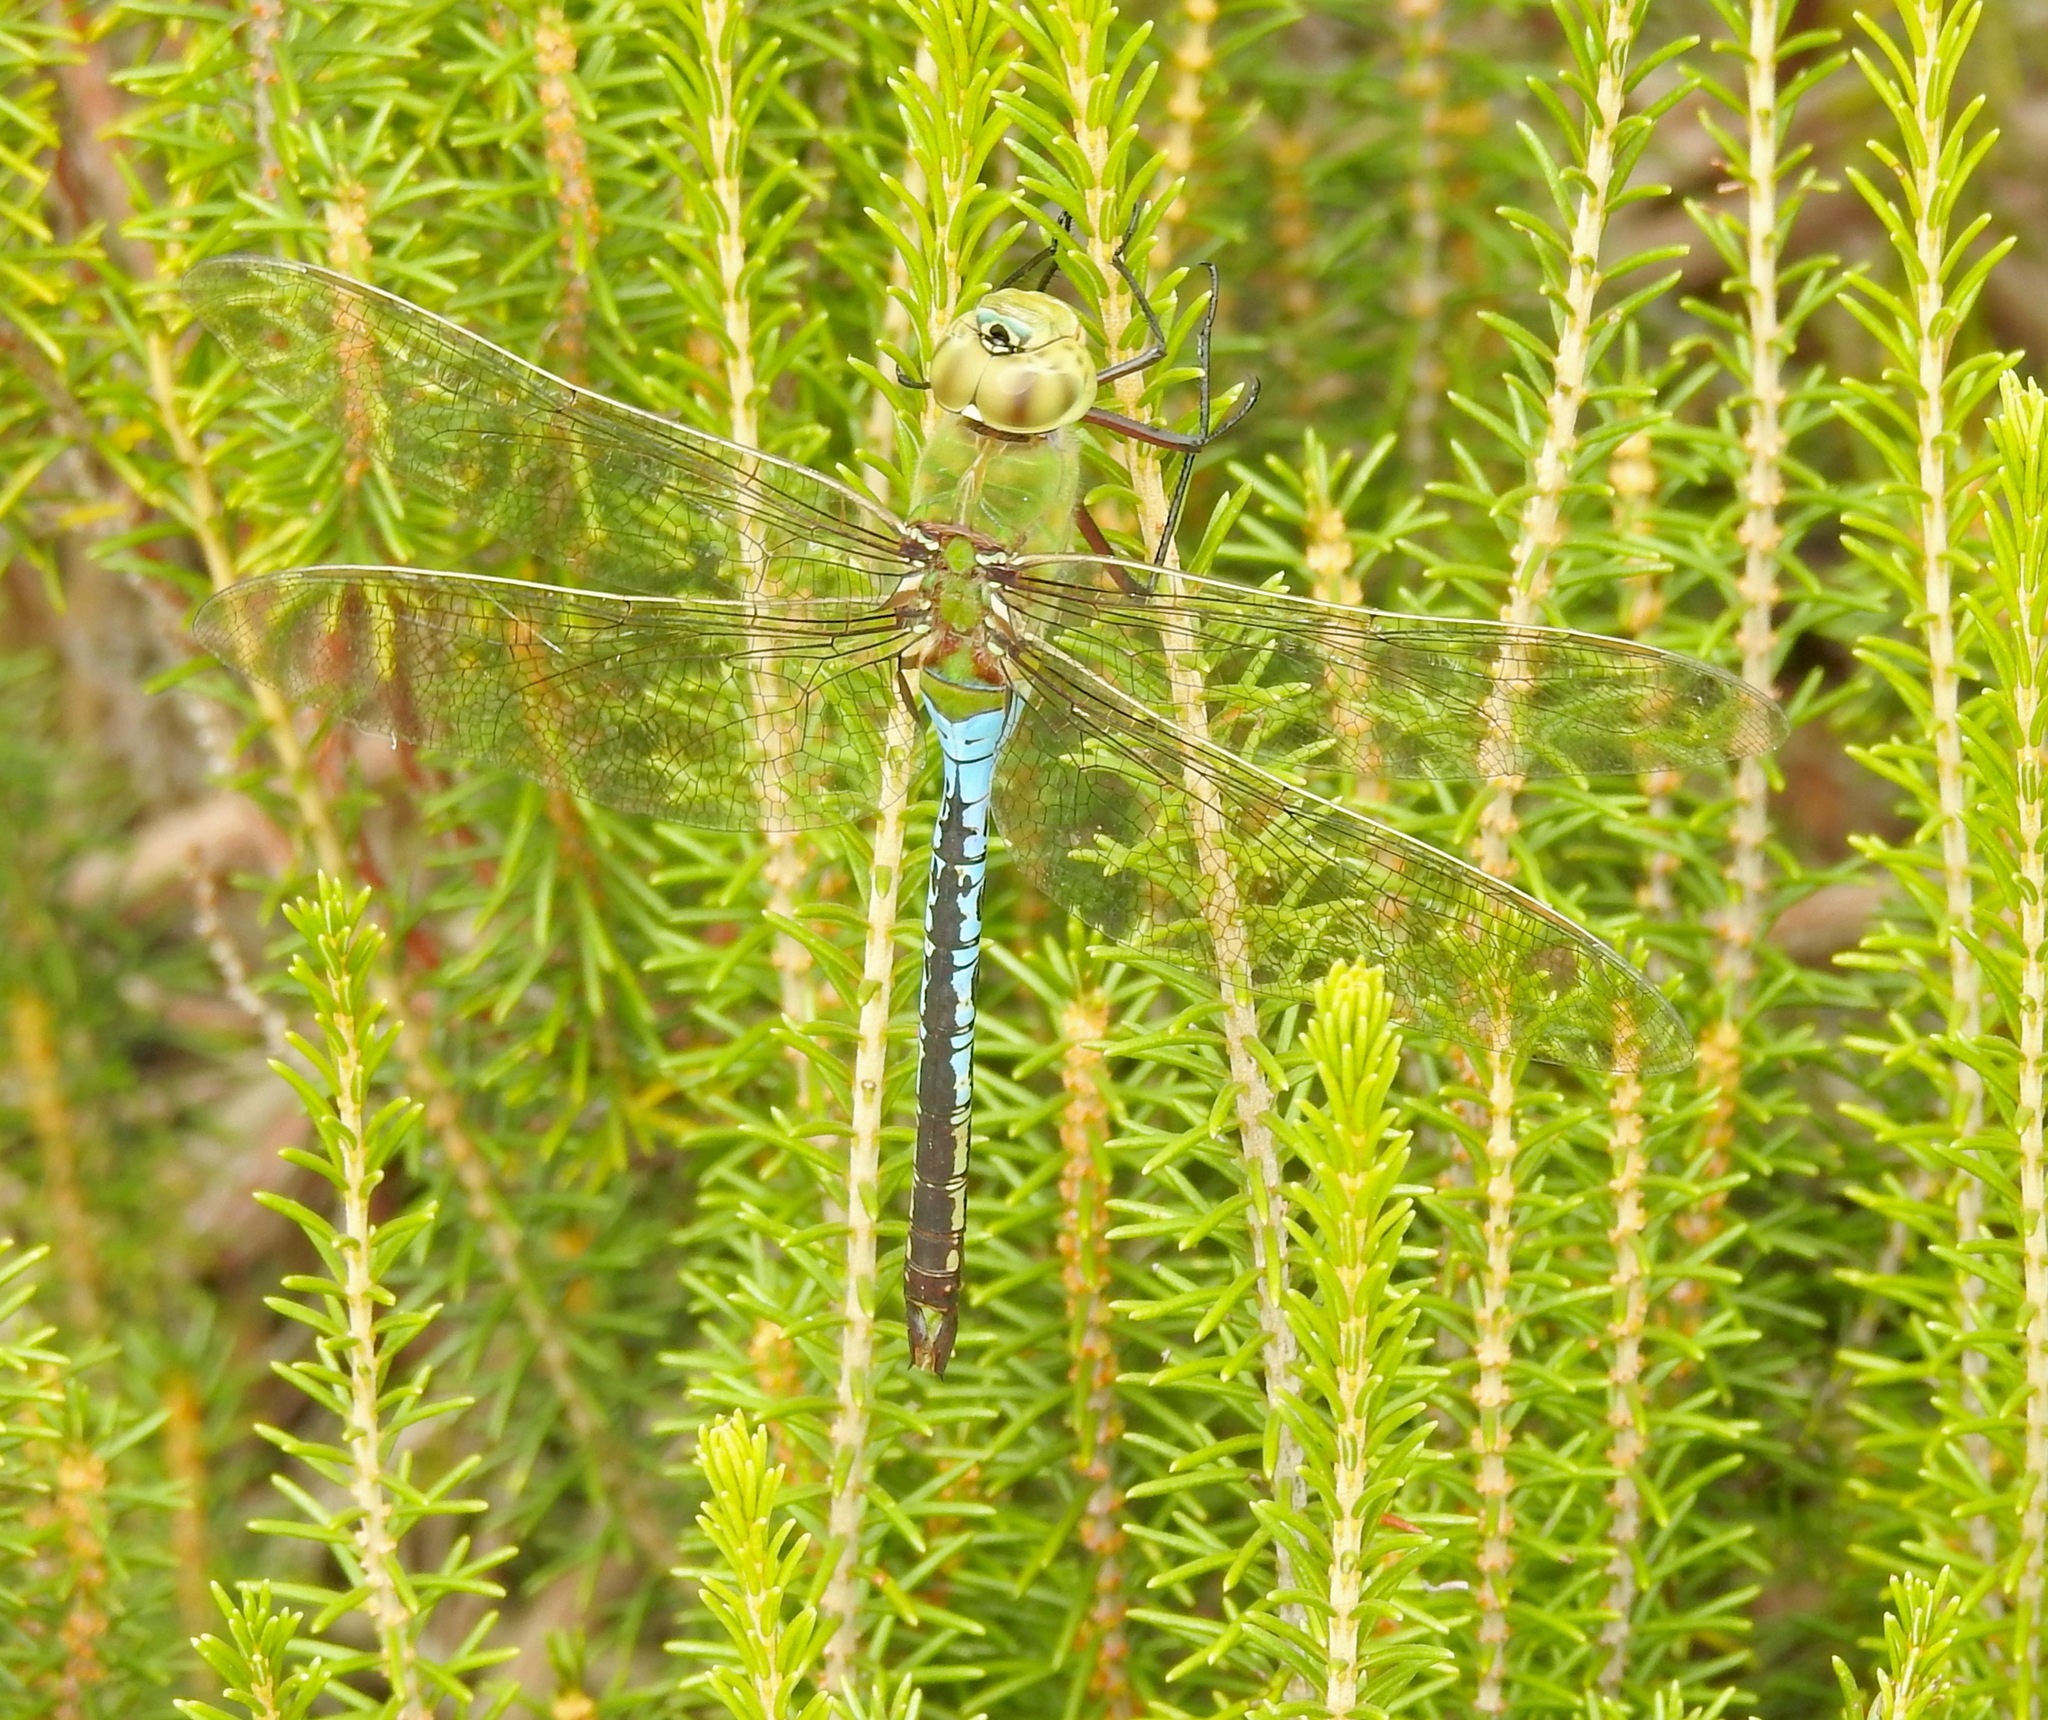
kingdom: Animalia
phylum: Arthropoda
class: Insecta
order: Odonata
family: Aeshnidae
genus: Anax
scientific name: Anax junius
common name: Common green darner
